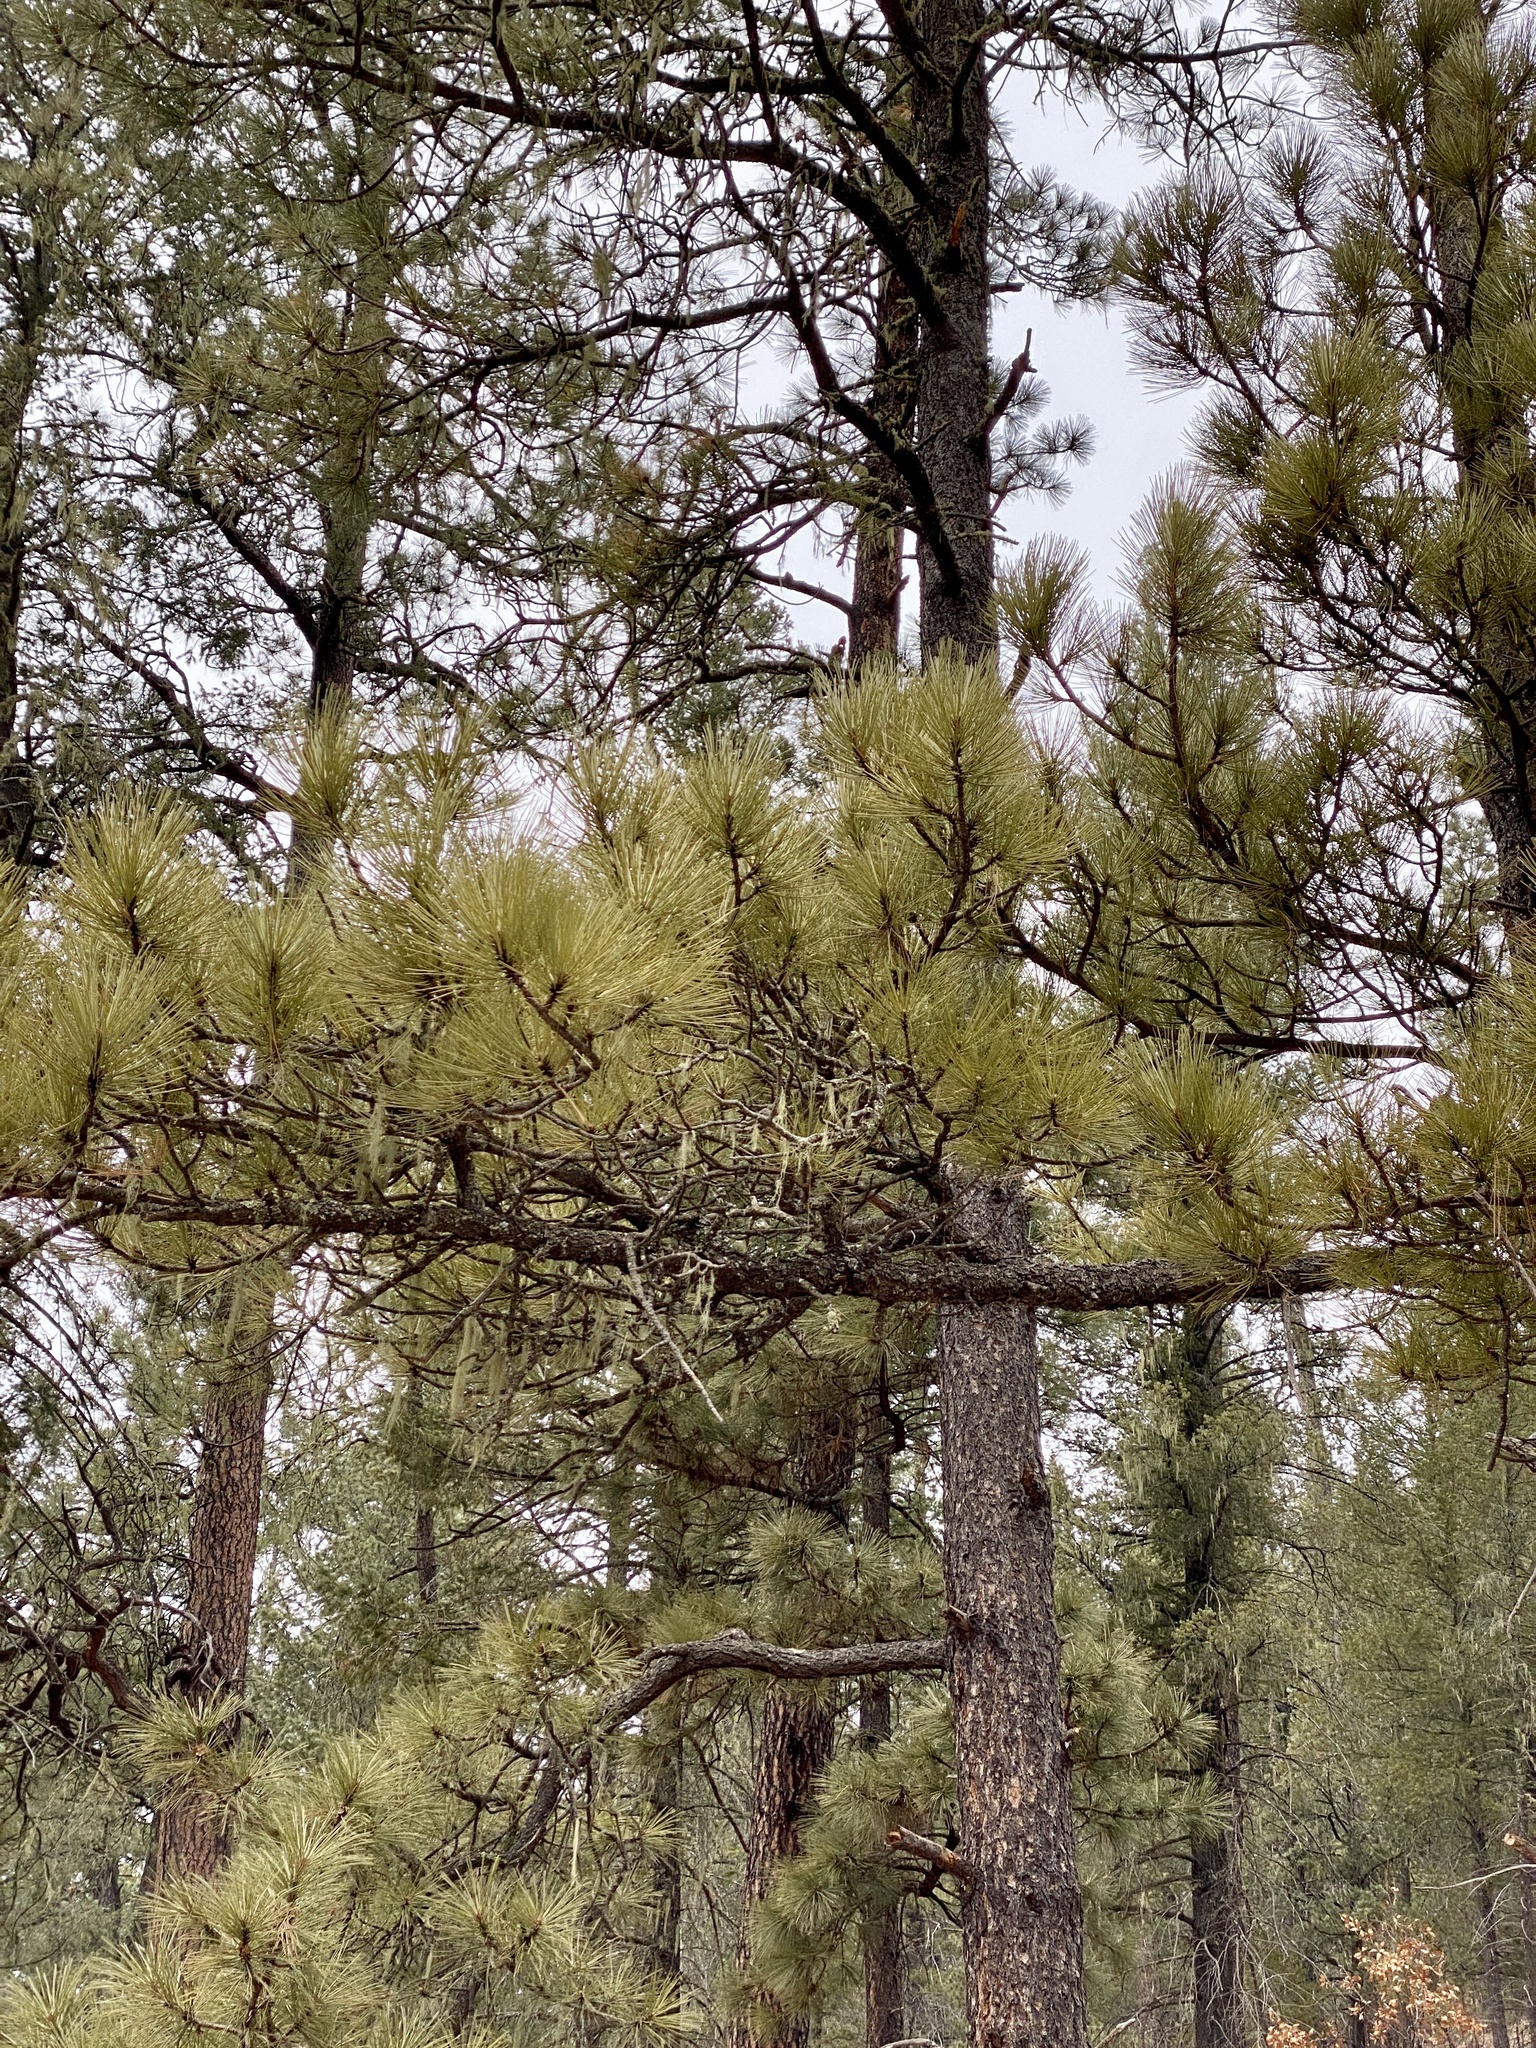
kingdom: Plantae
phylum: Tracheophyta
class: Pinopsida
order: Pinales
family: Pinaceae
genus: Pinus
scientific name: Pinus ponderosa
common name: Western yellow-pine
